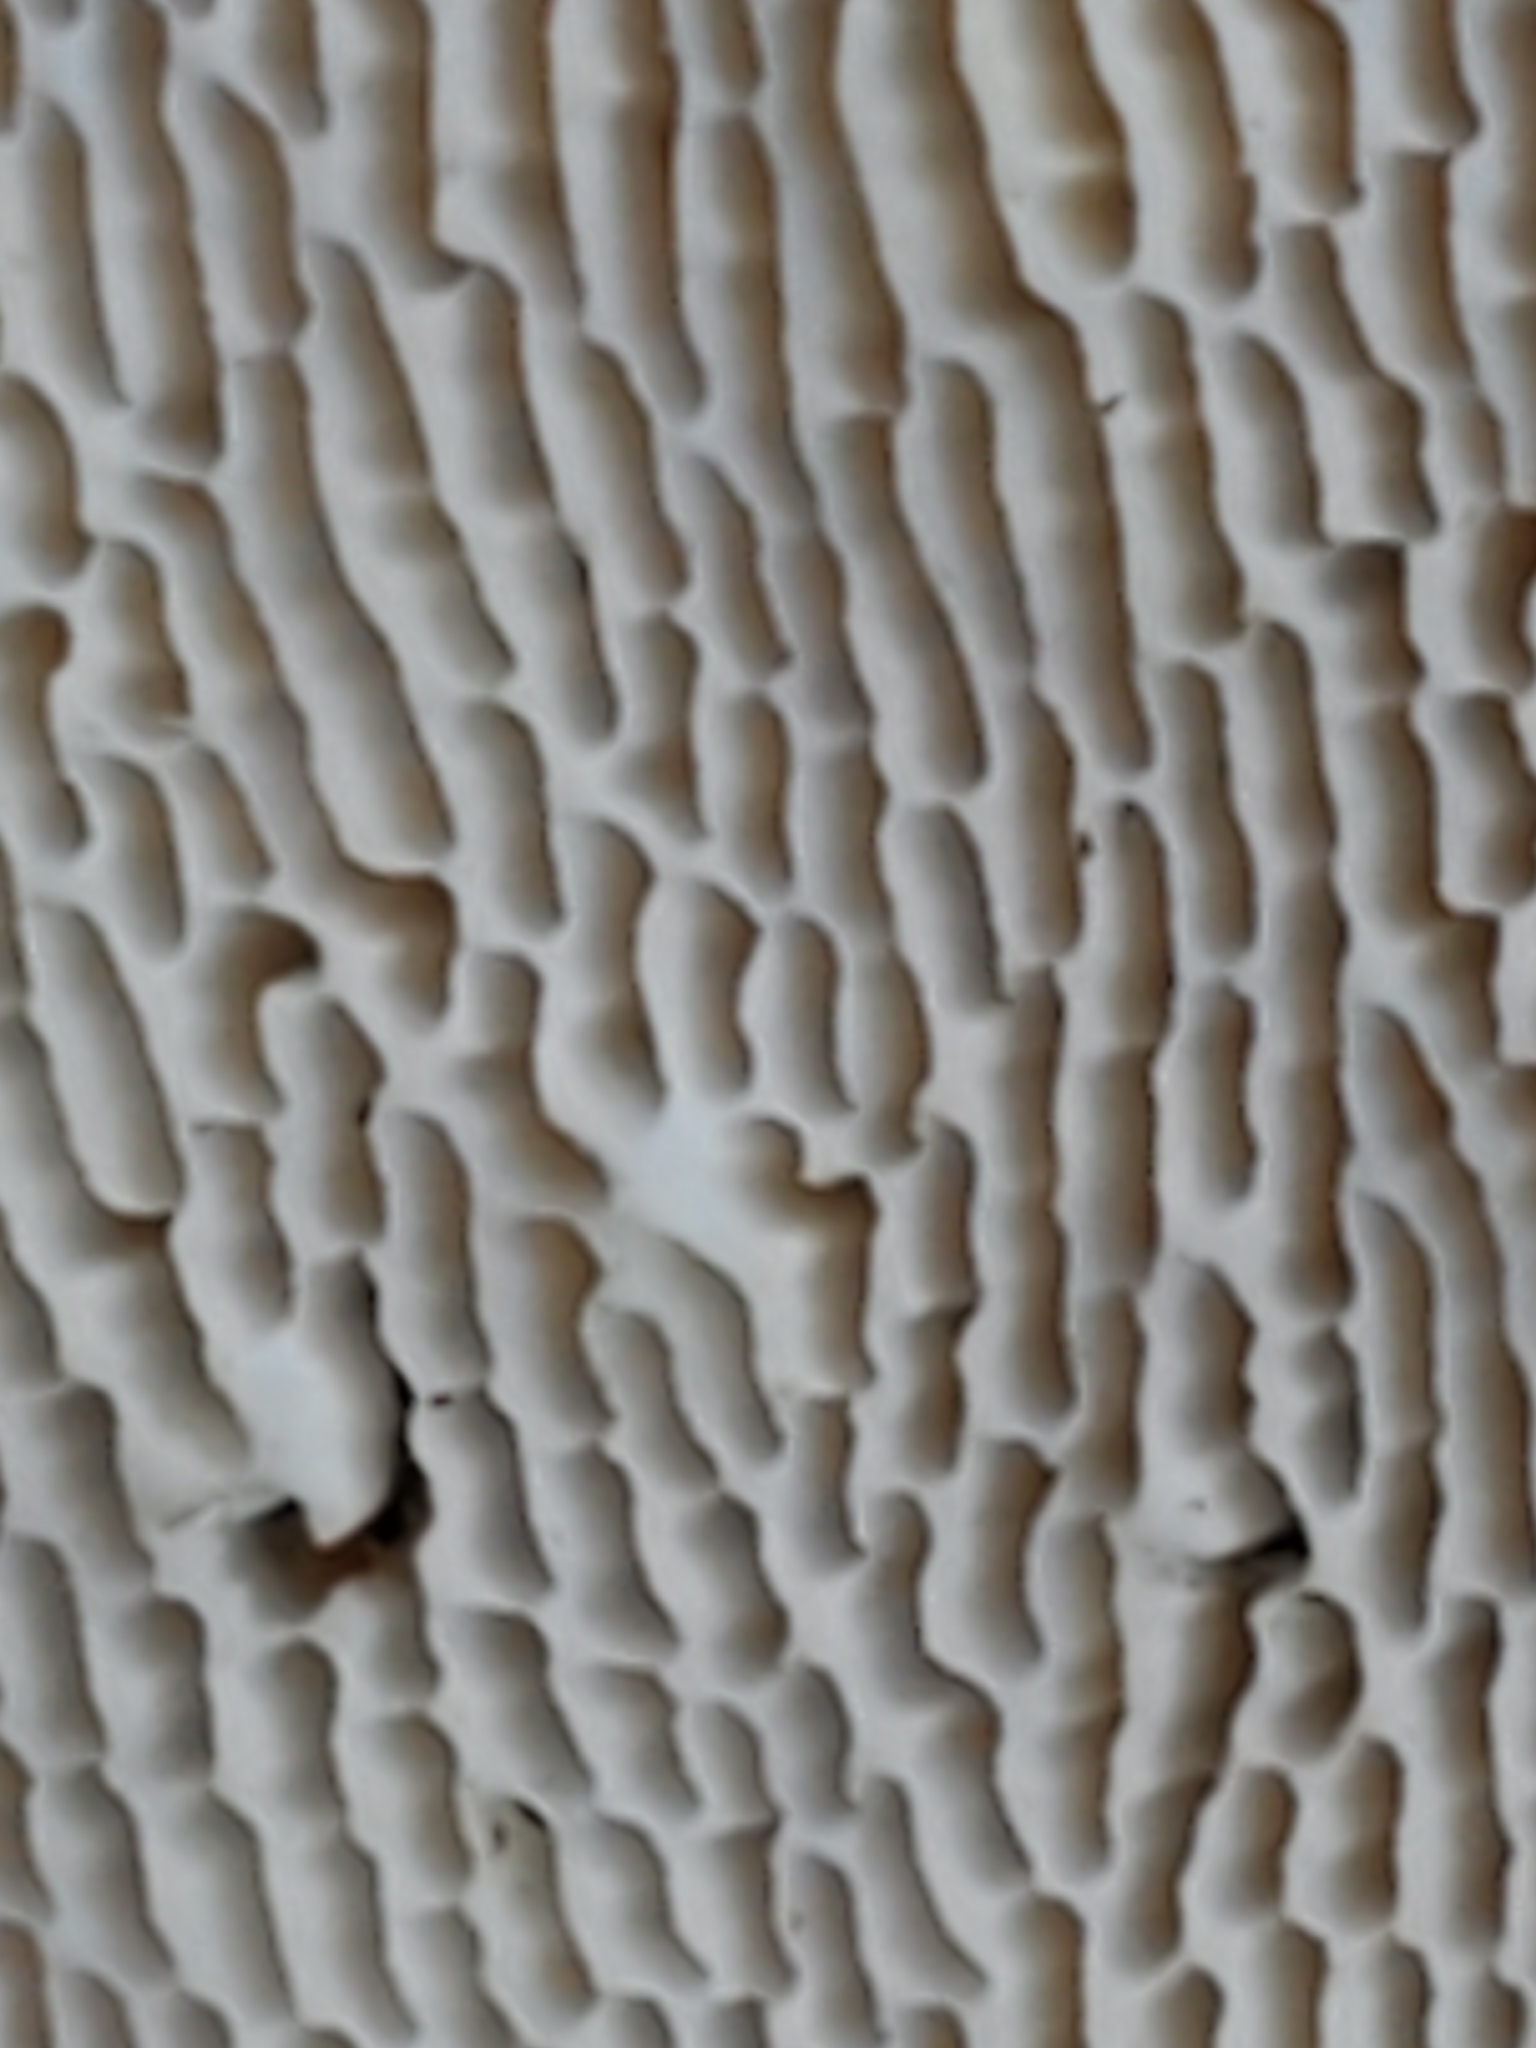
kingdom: Fungi
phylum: Basidiomycota
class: Agaricomycetes
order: Polyporales
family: Polyporaceae
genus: Trametes
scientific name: Trametes gibbosa
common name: Lumpy bracket
